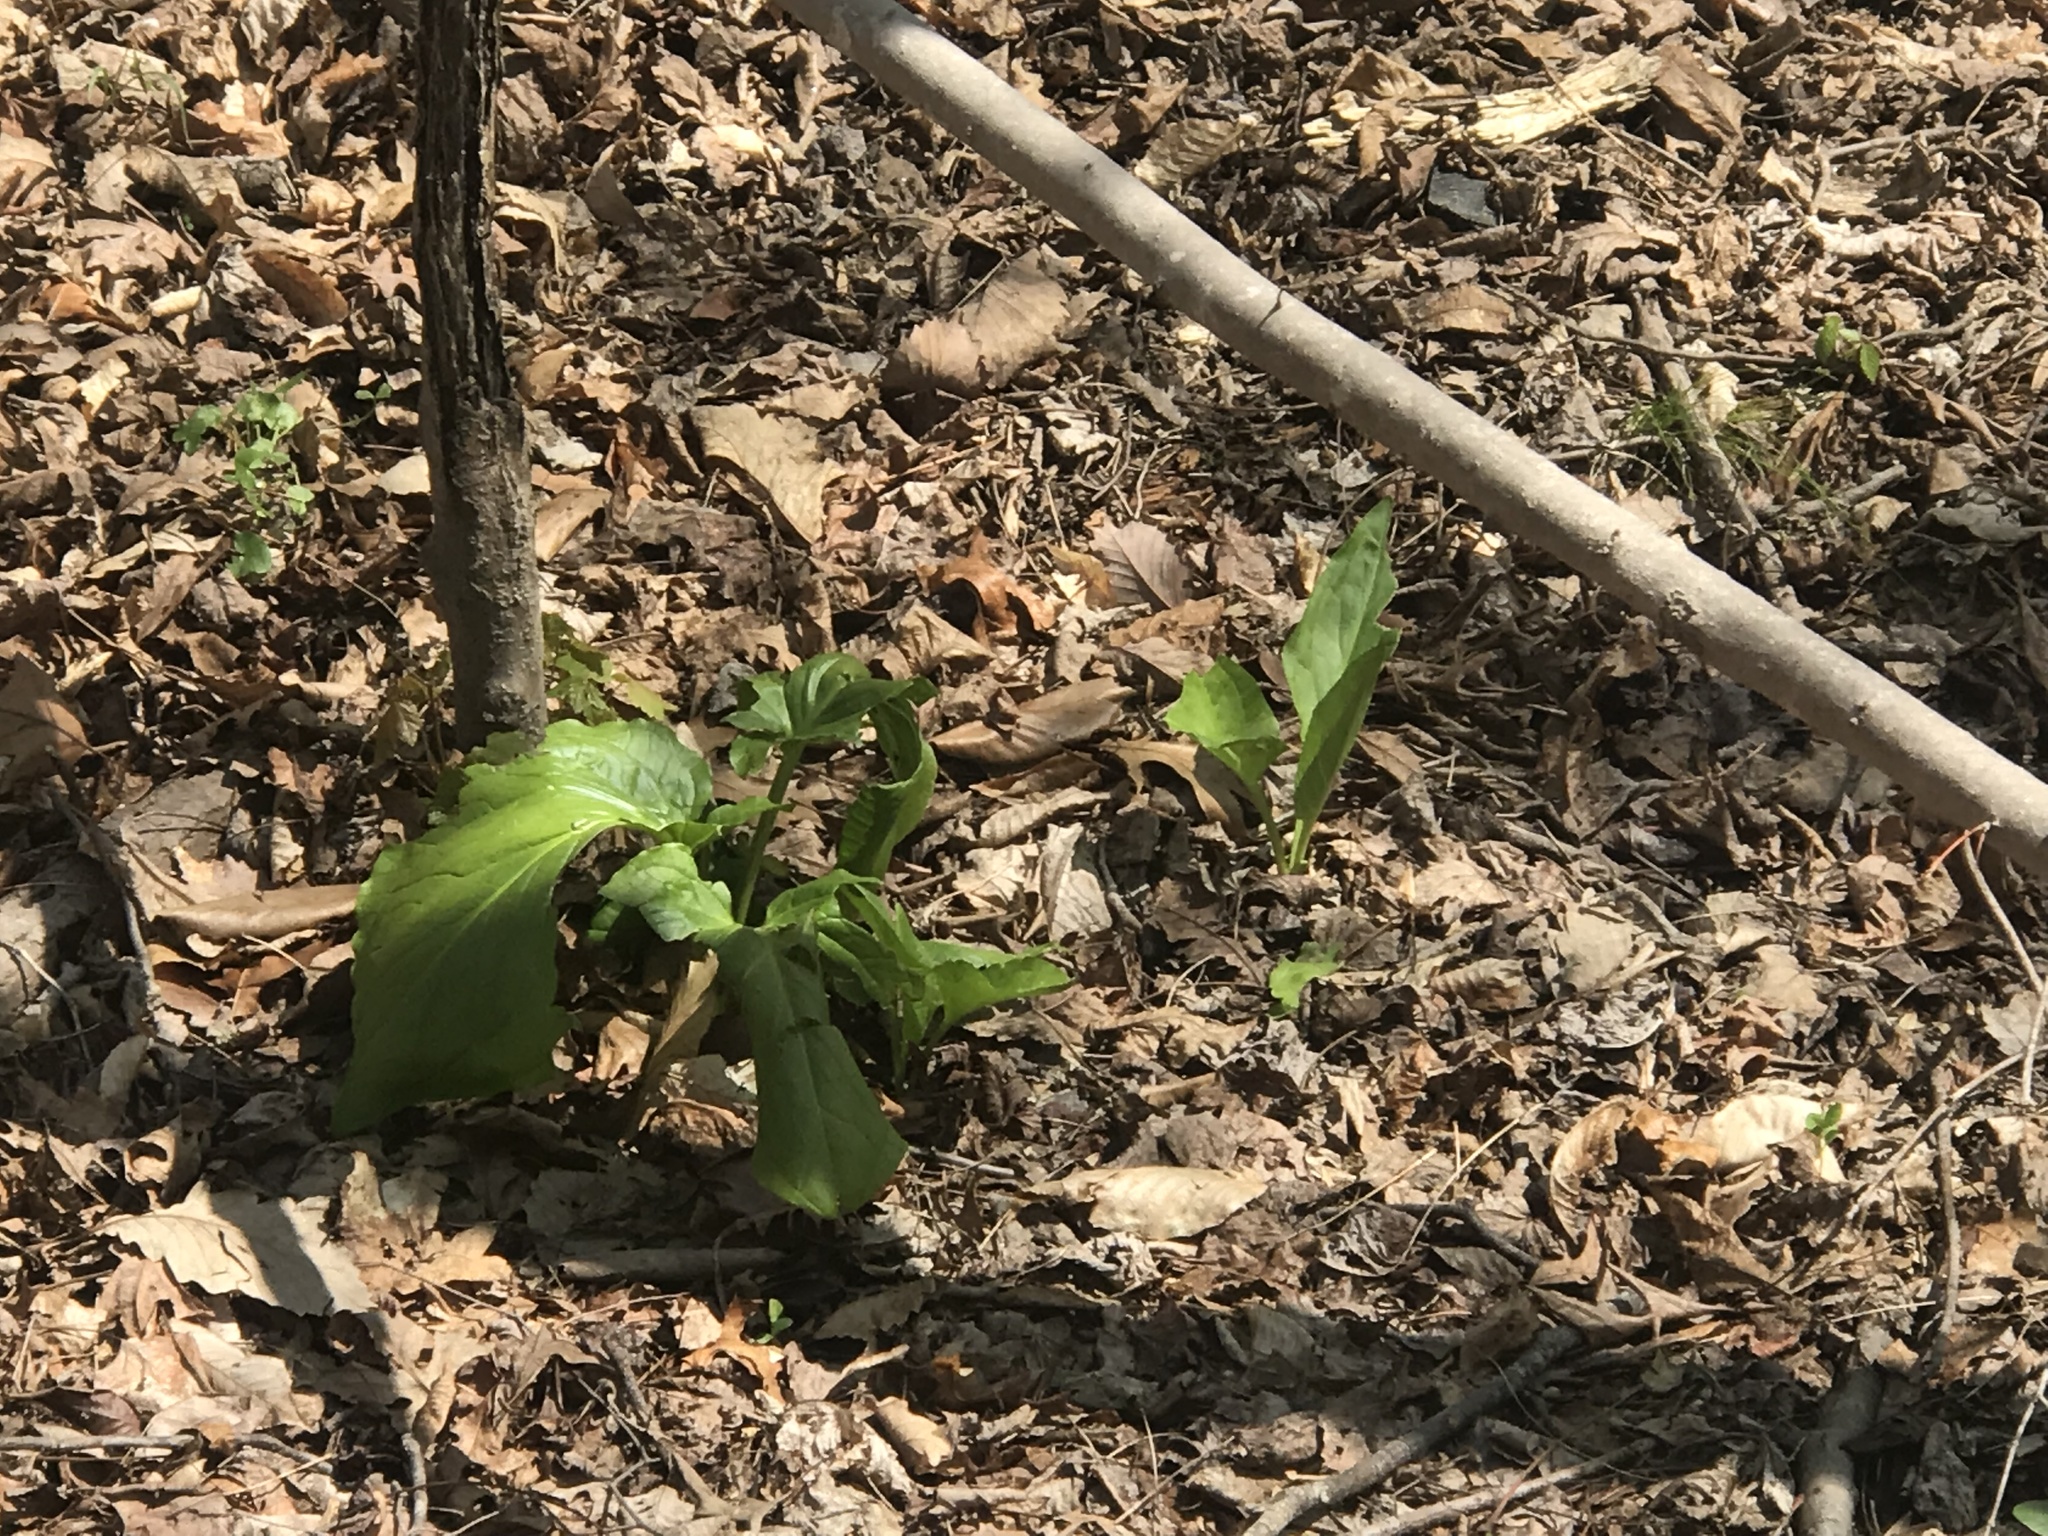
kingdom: Plantae
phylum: Tracheophyta
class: Liliopsida
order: Alismatales
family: Araceae
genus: Symplocarpus
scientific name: Symplocarpus foetidus
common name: Eastern skunk cabbage
